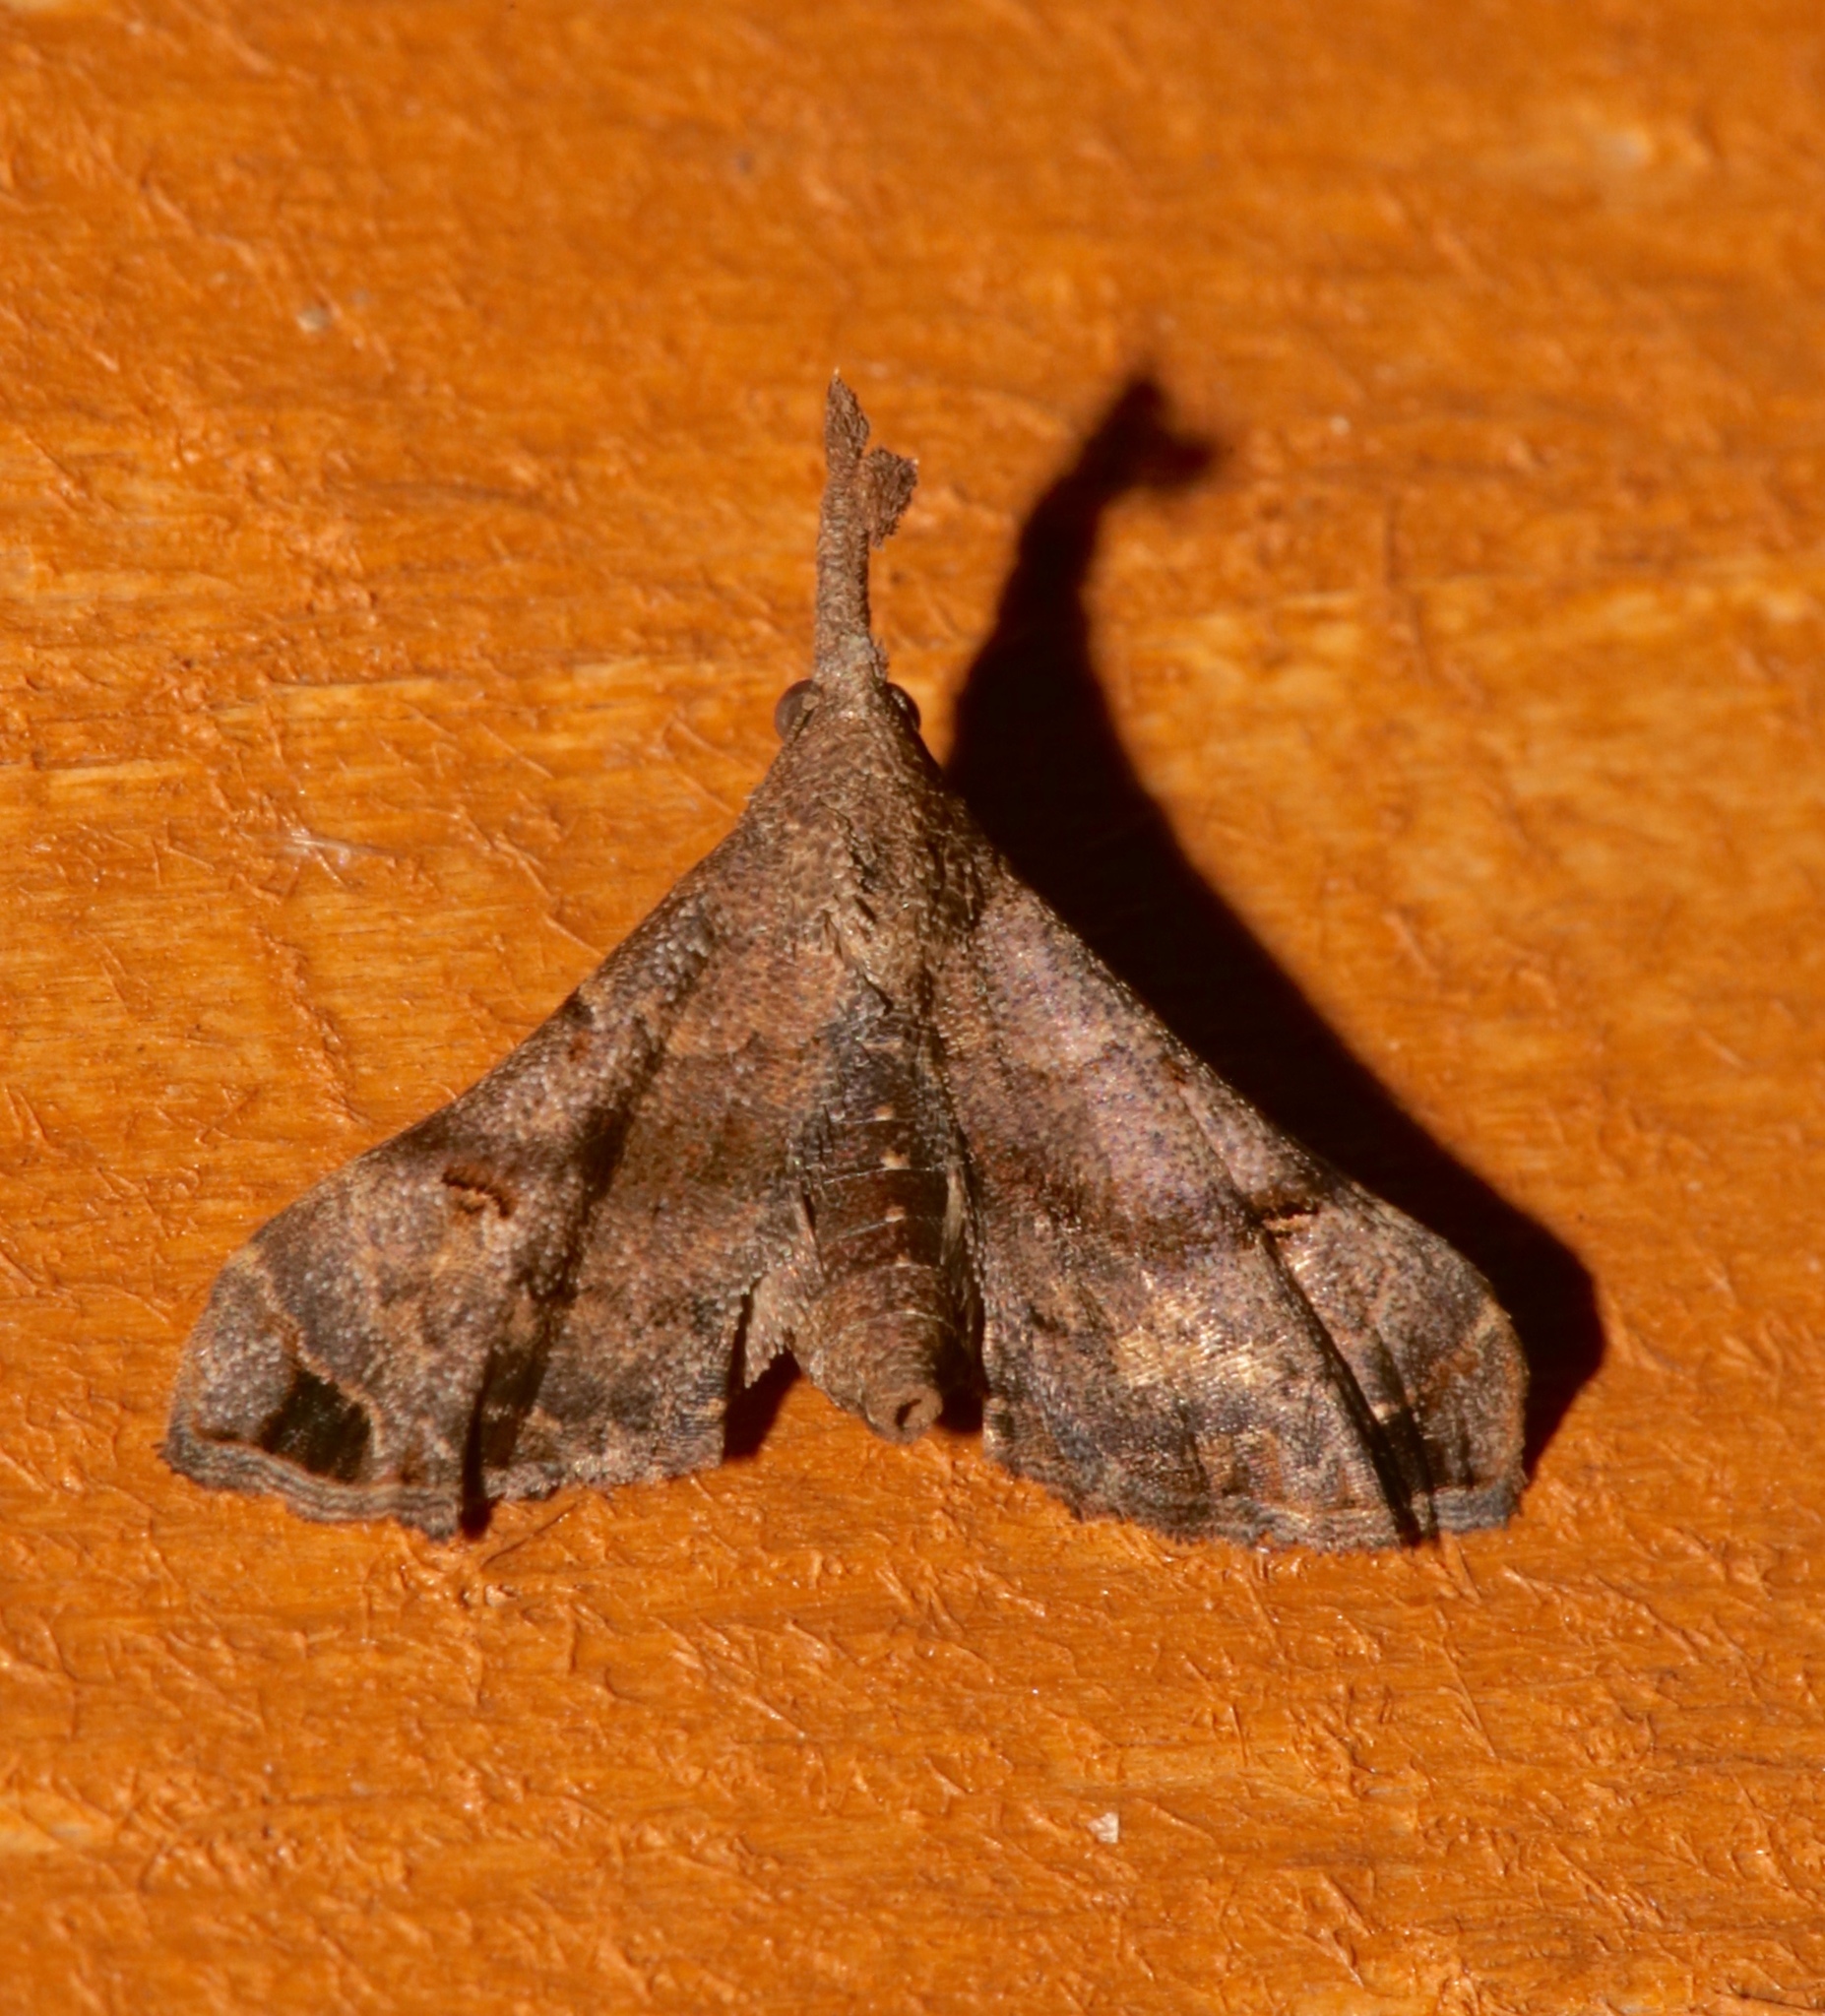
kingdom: Animalia
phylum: Arthropoda
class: Insecta
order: Lepidoptera
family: Erebidae
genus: Palthis
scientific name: Palthis asopialis
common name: Faint-spotted palthis moth
